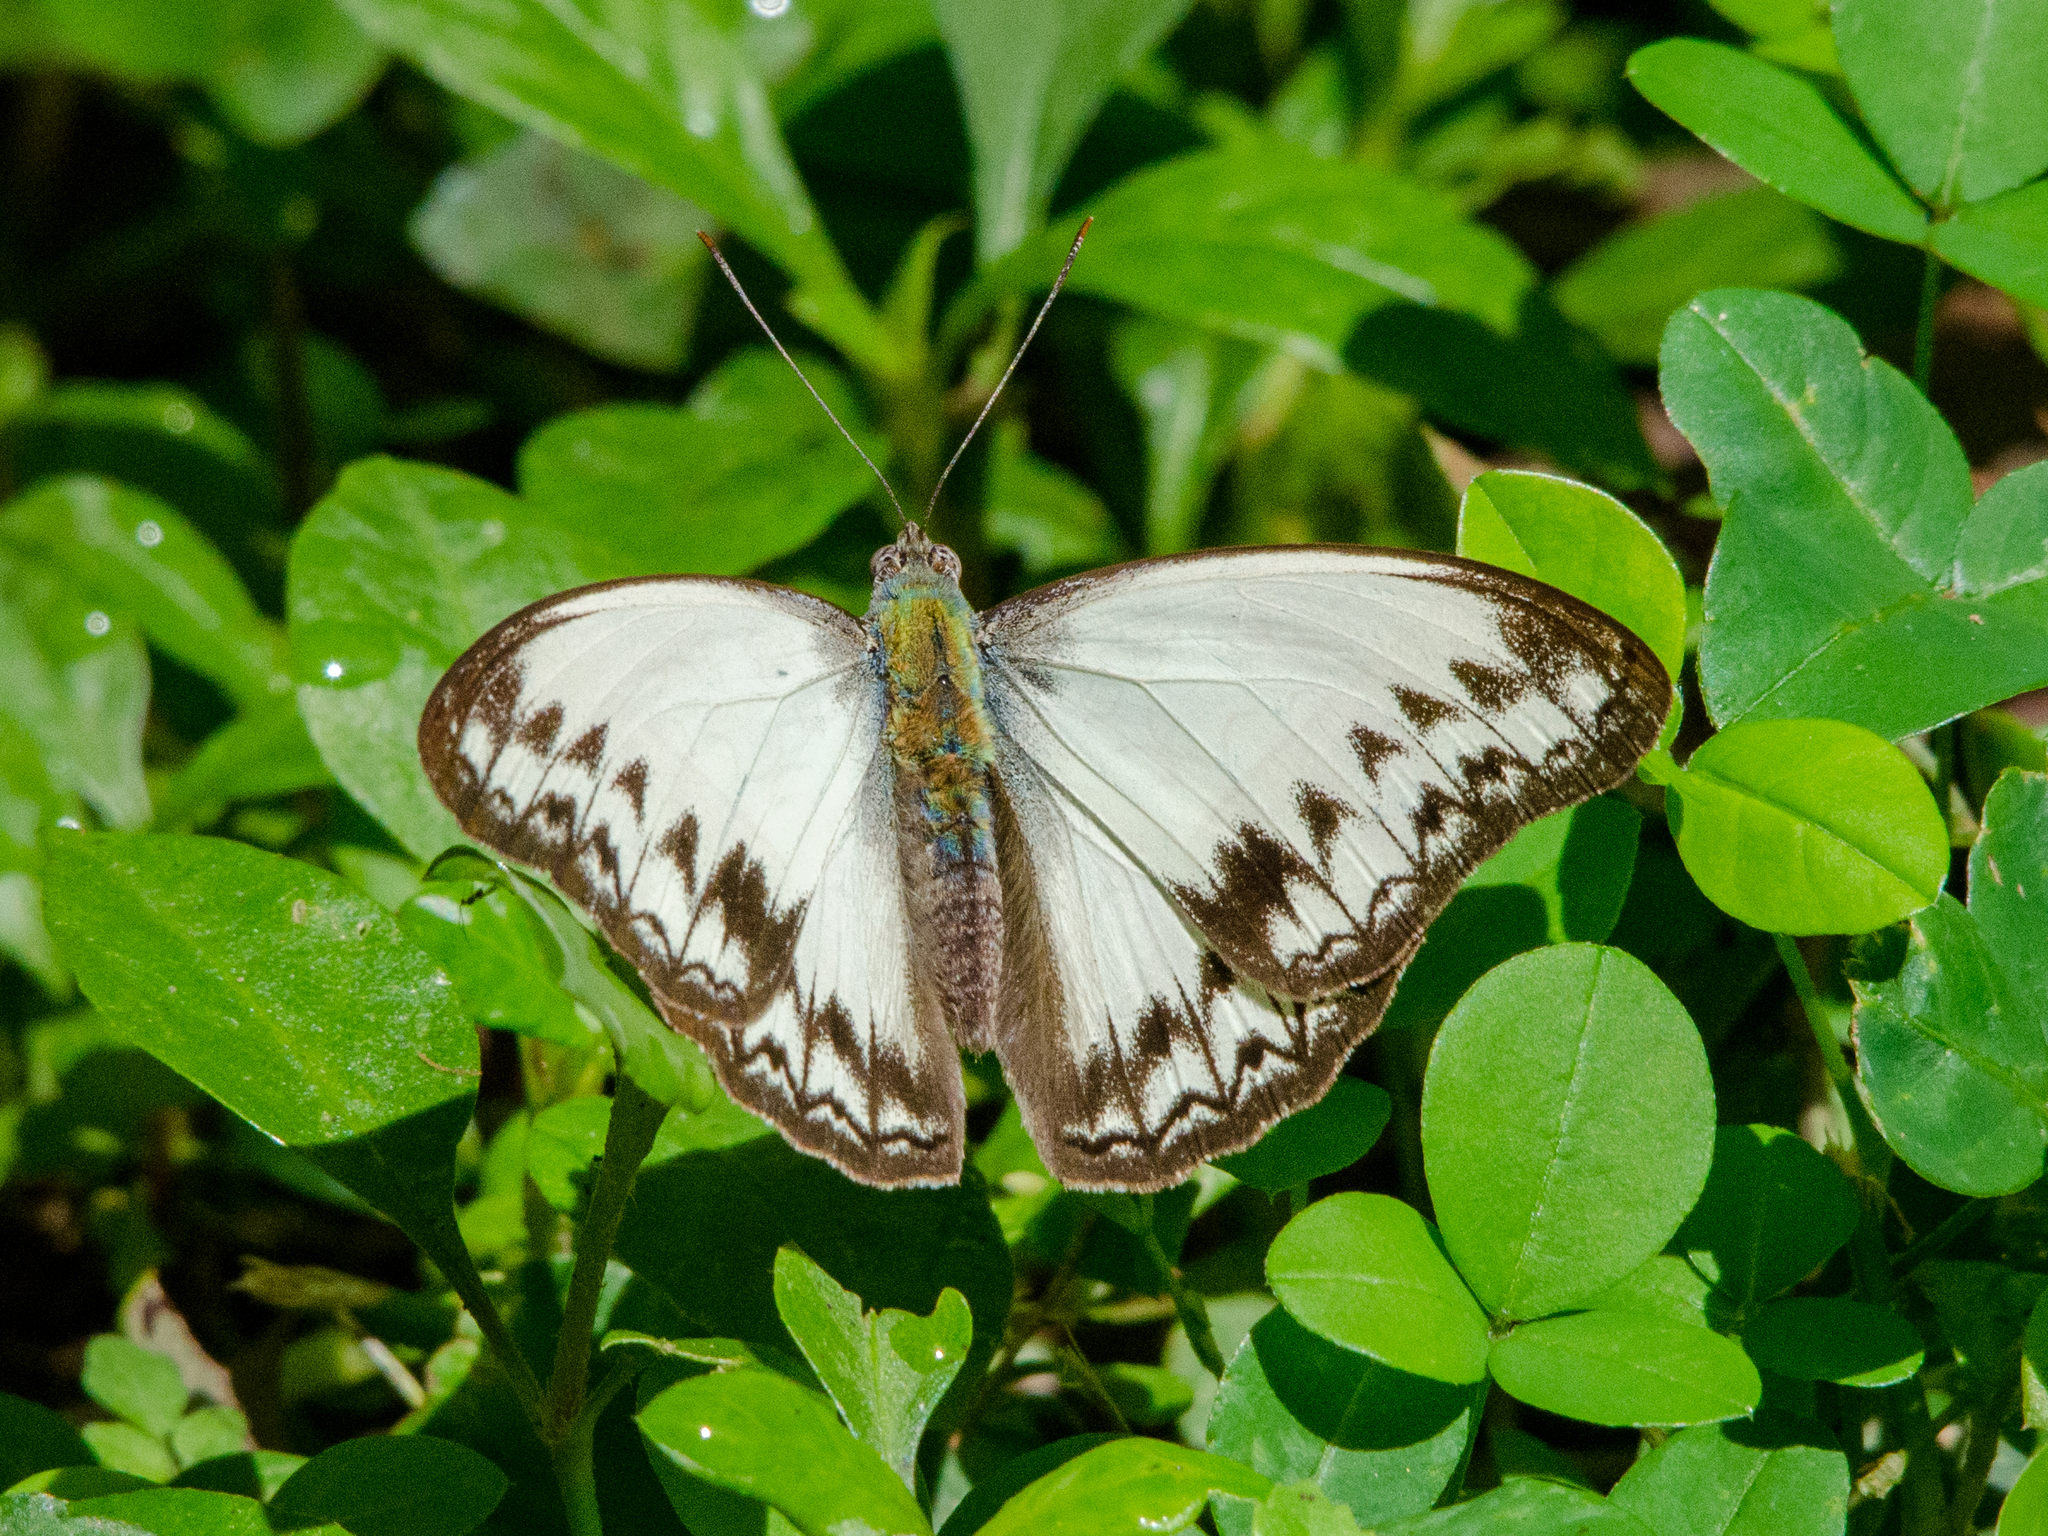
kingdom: Animalia
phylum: Arthropoda
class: Insecta
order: Lepidoptera
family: Nymphalidae
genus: Cymothoe
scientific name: Cymothoe caenis
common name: Common glider
